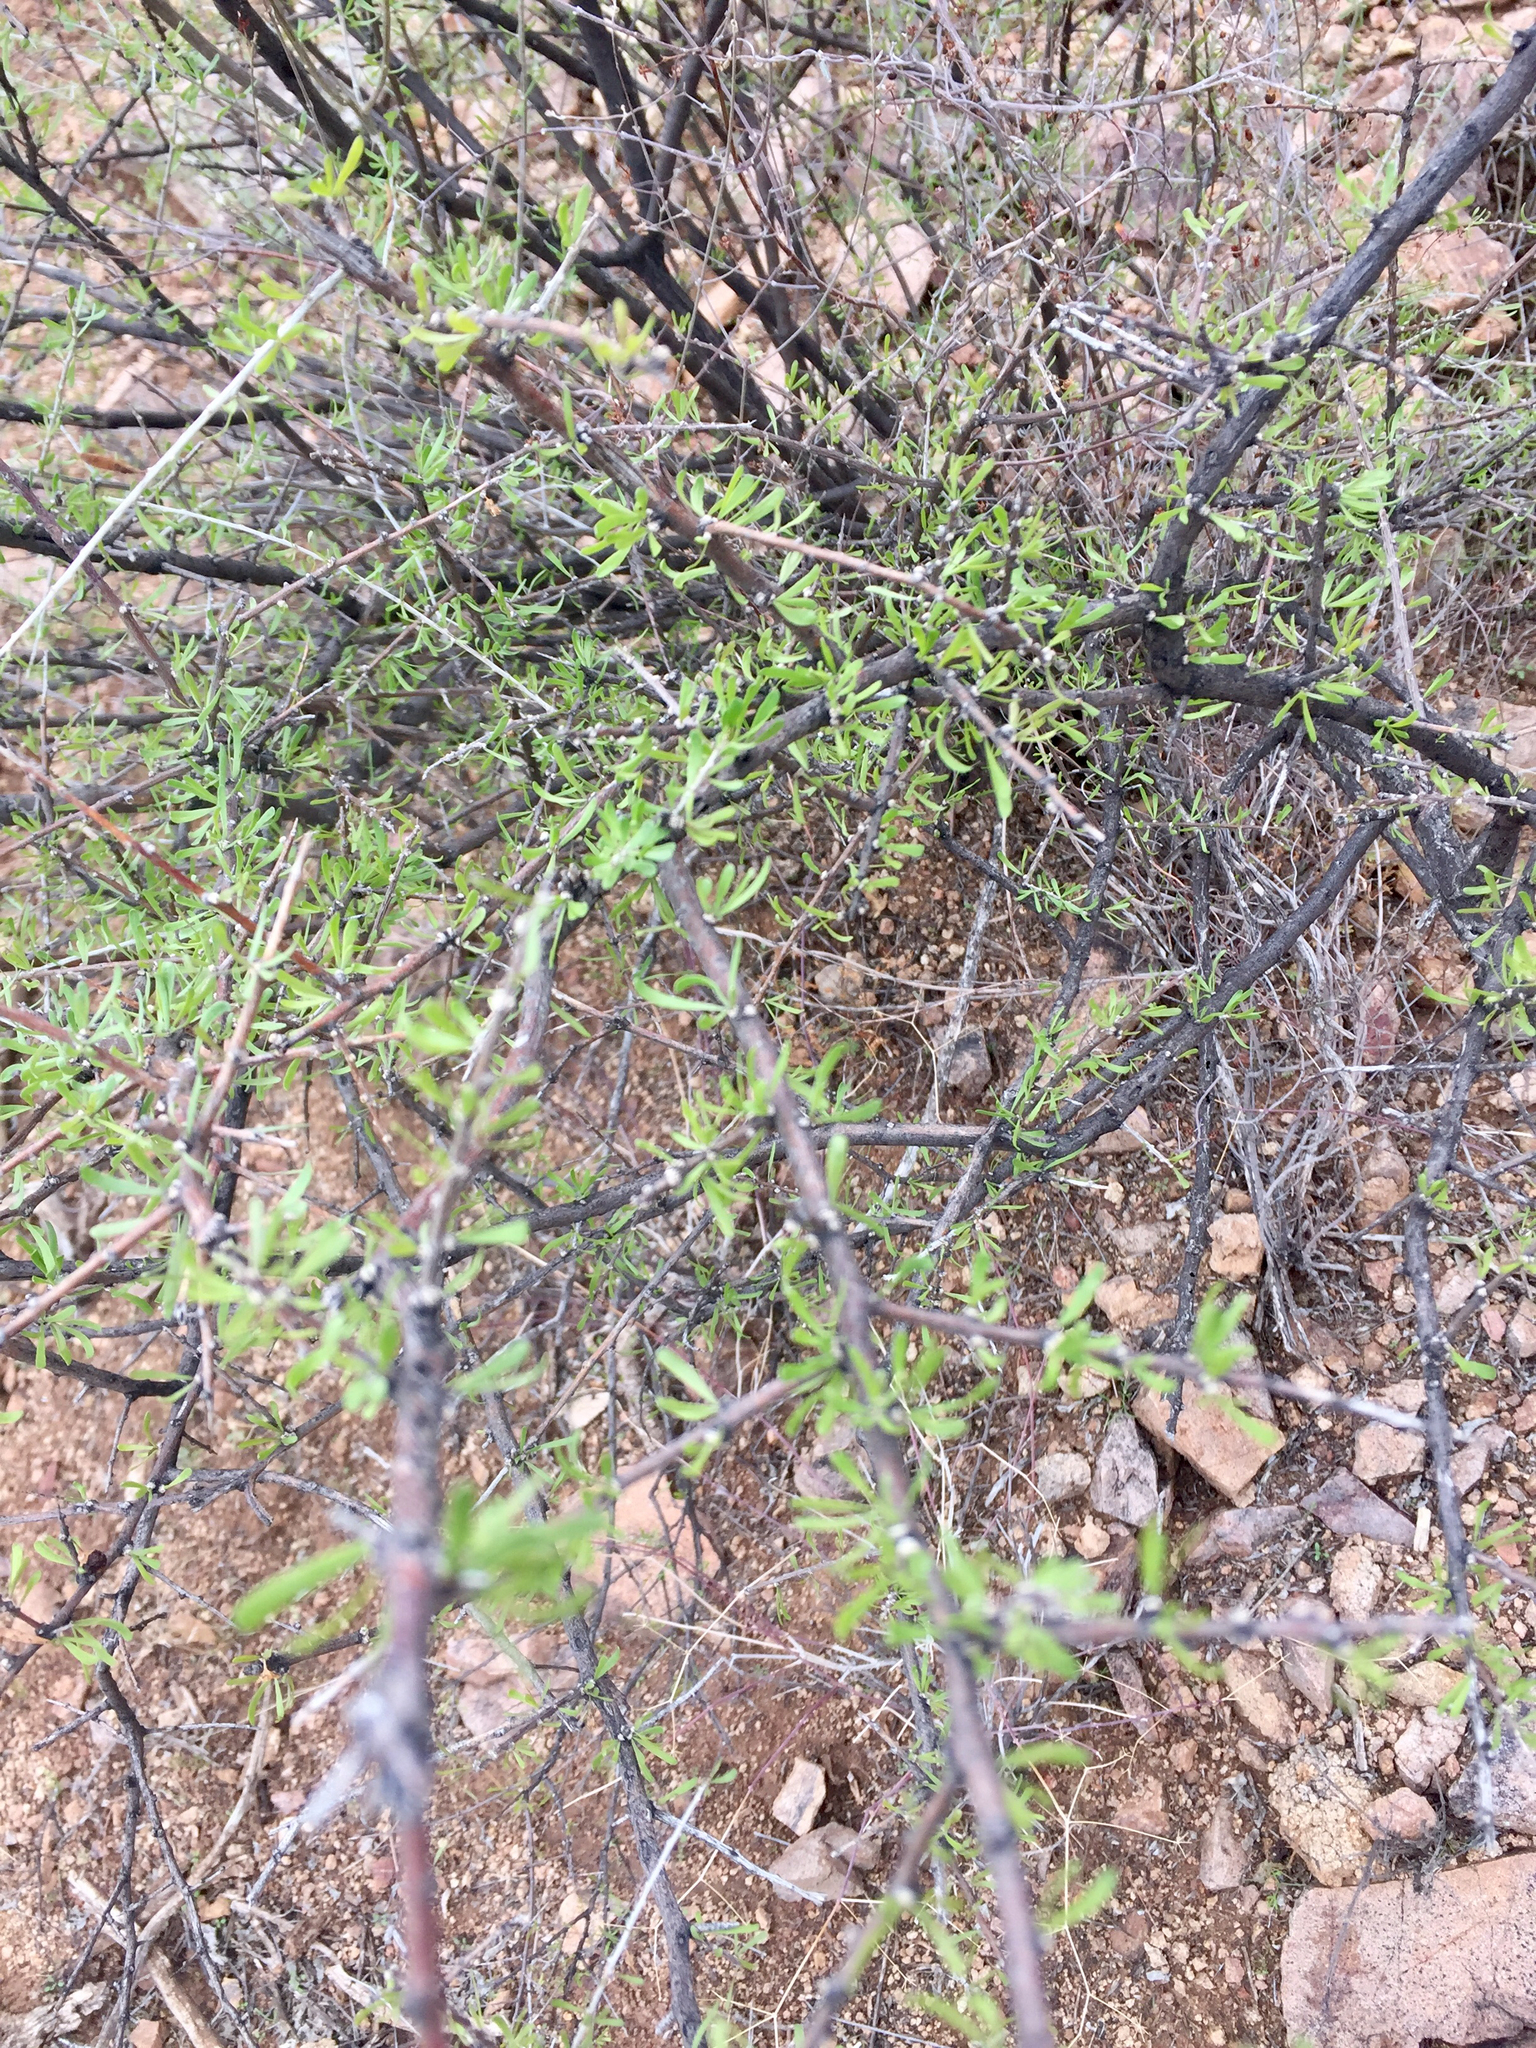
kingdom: Plantae
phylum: Tracheophyta
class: Magnoliopsida
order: Solanales
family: Solanaceae
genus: Lycium
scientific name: Lycium berlandieri
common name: Berlandier wolfberry
